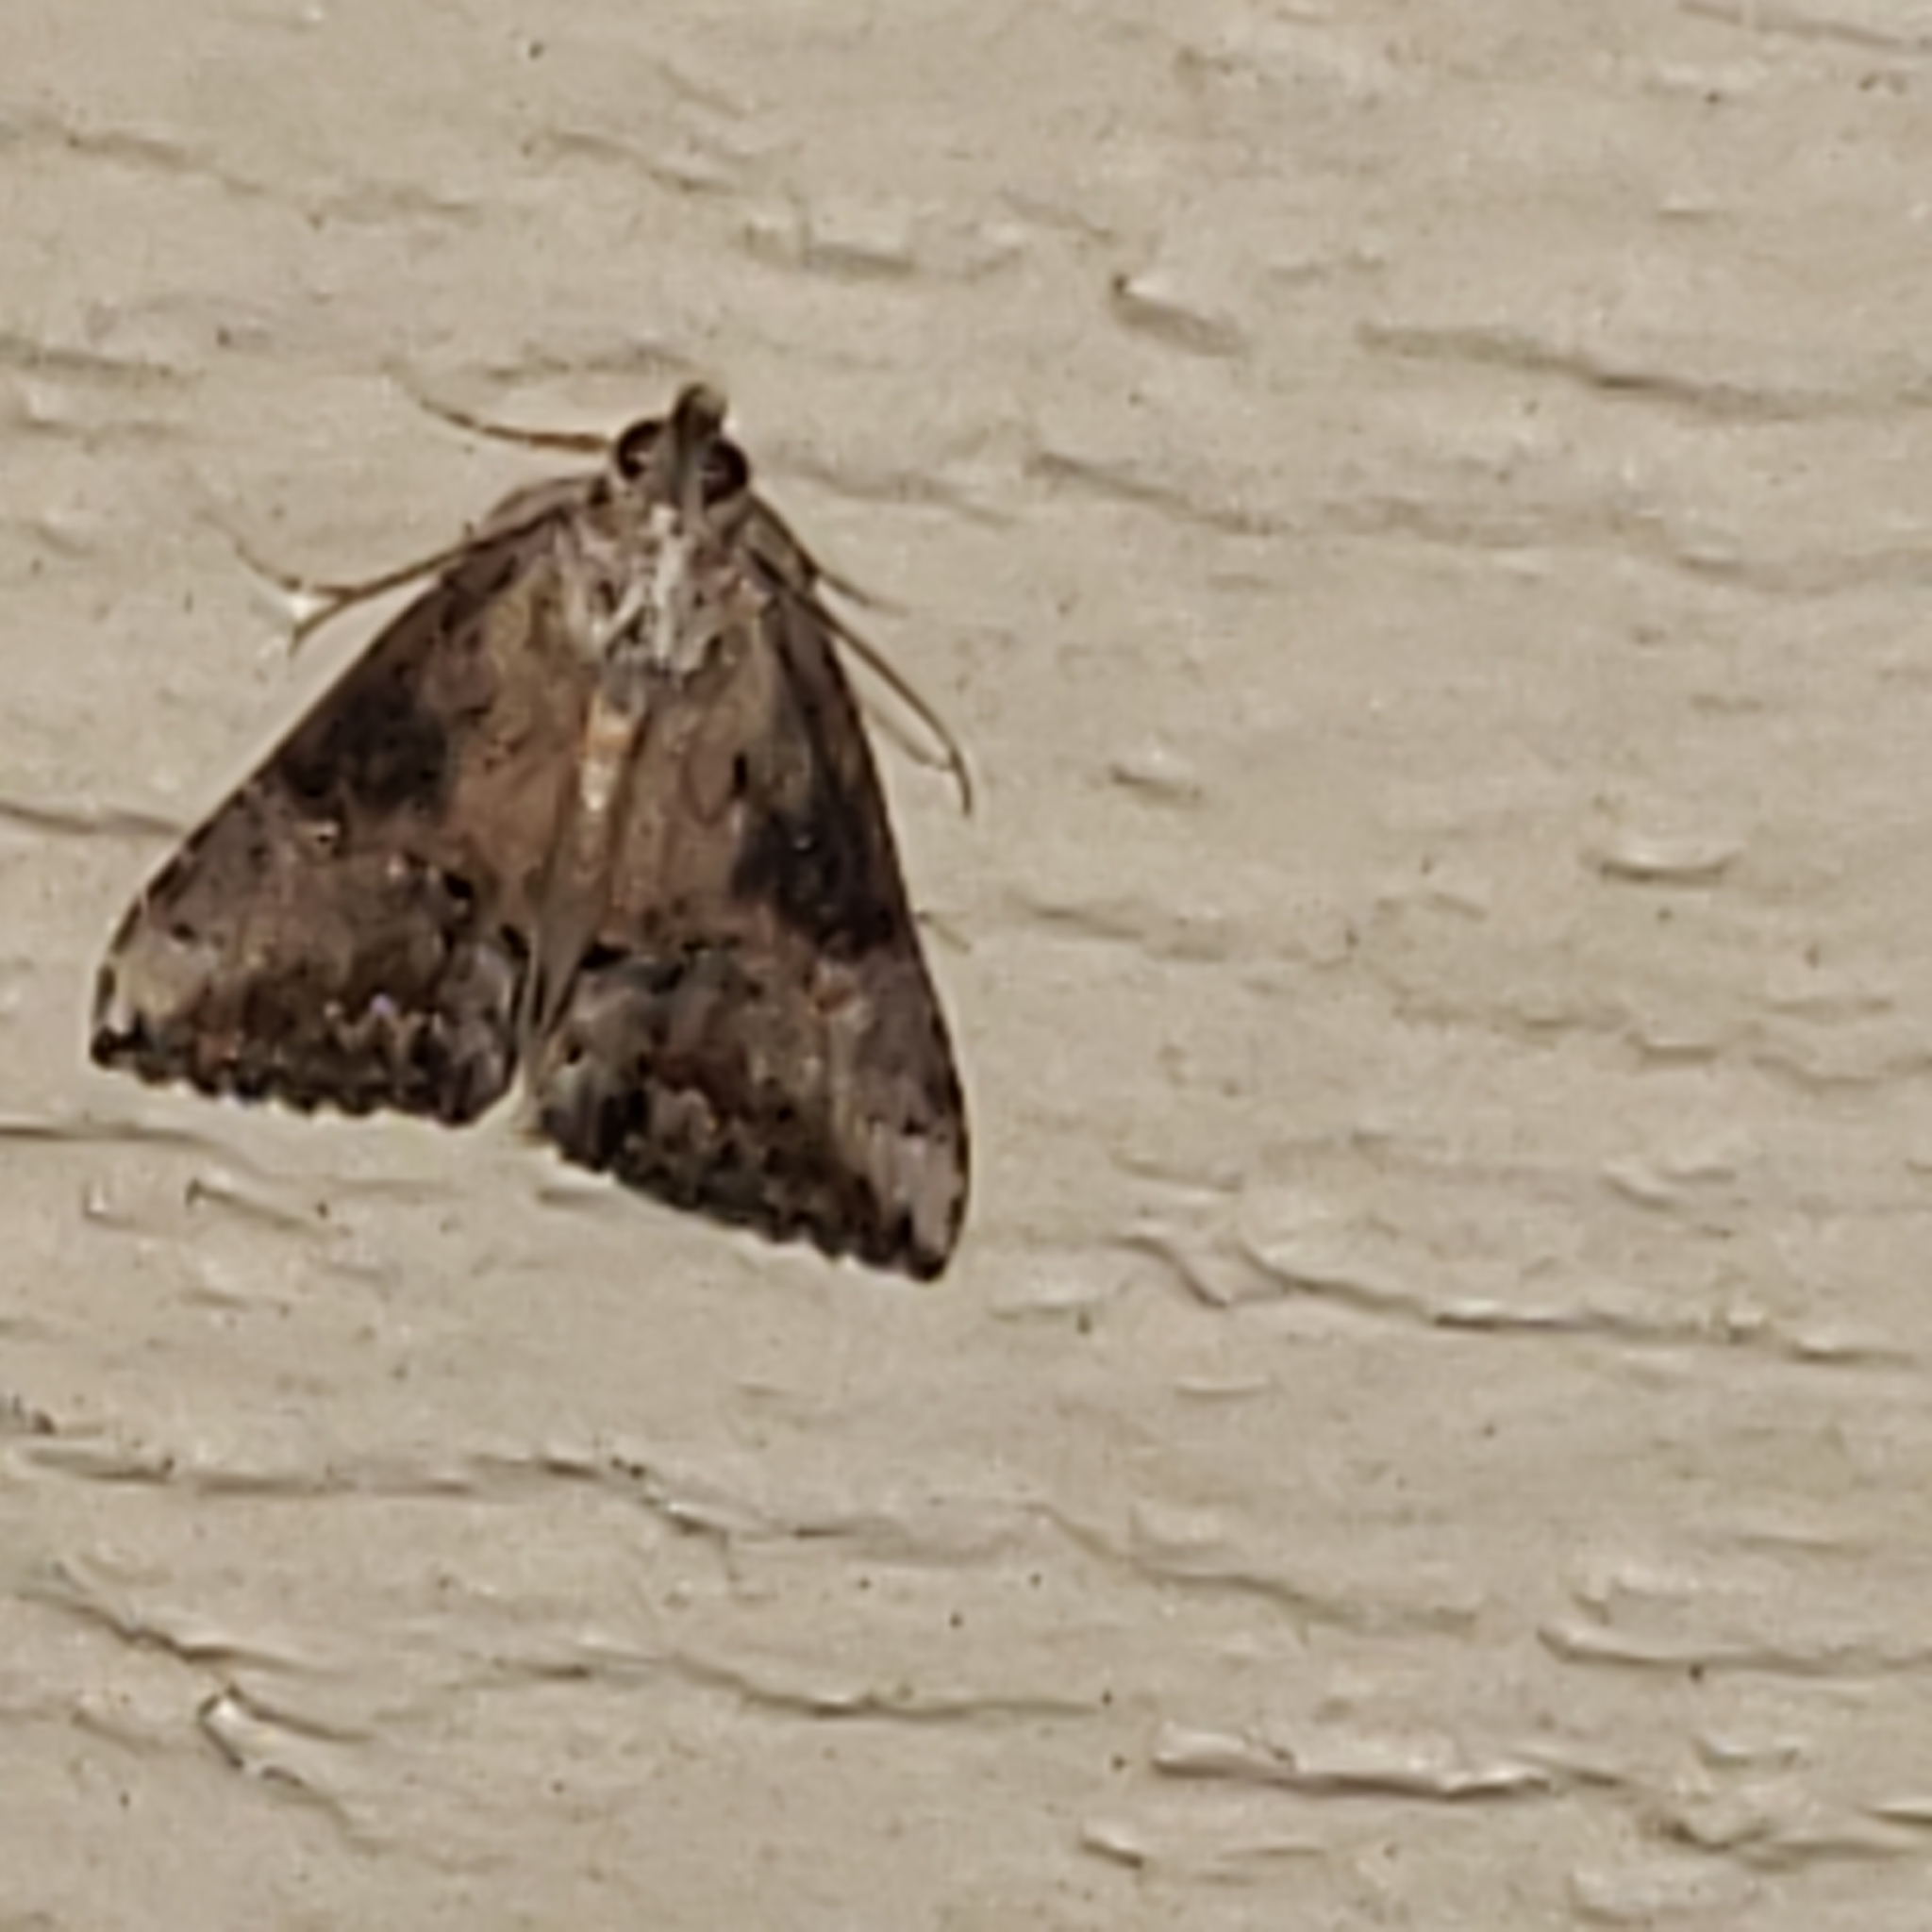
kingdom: Animalia
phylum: Arthropoda
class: Insecta
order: Lepidoptera
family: Erebidae
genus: Hypena
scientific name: Hypena scabra
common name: Green cloverworm
